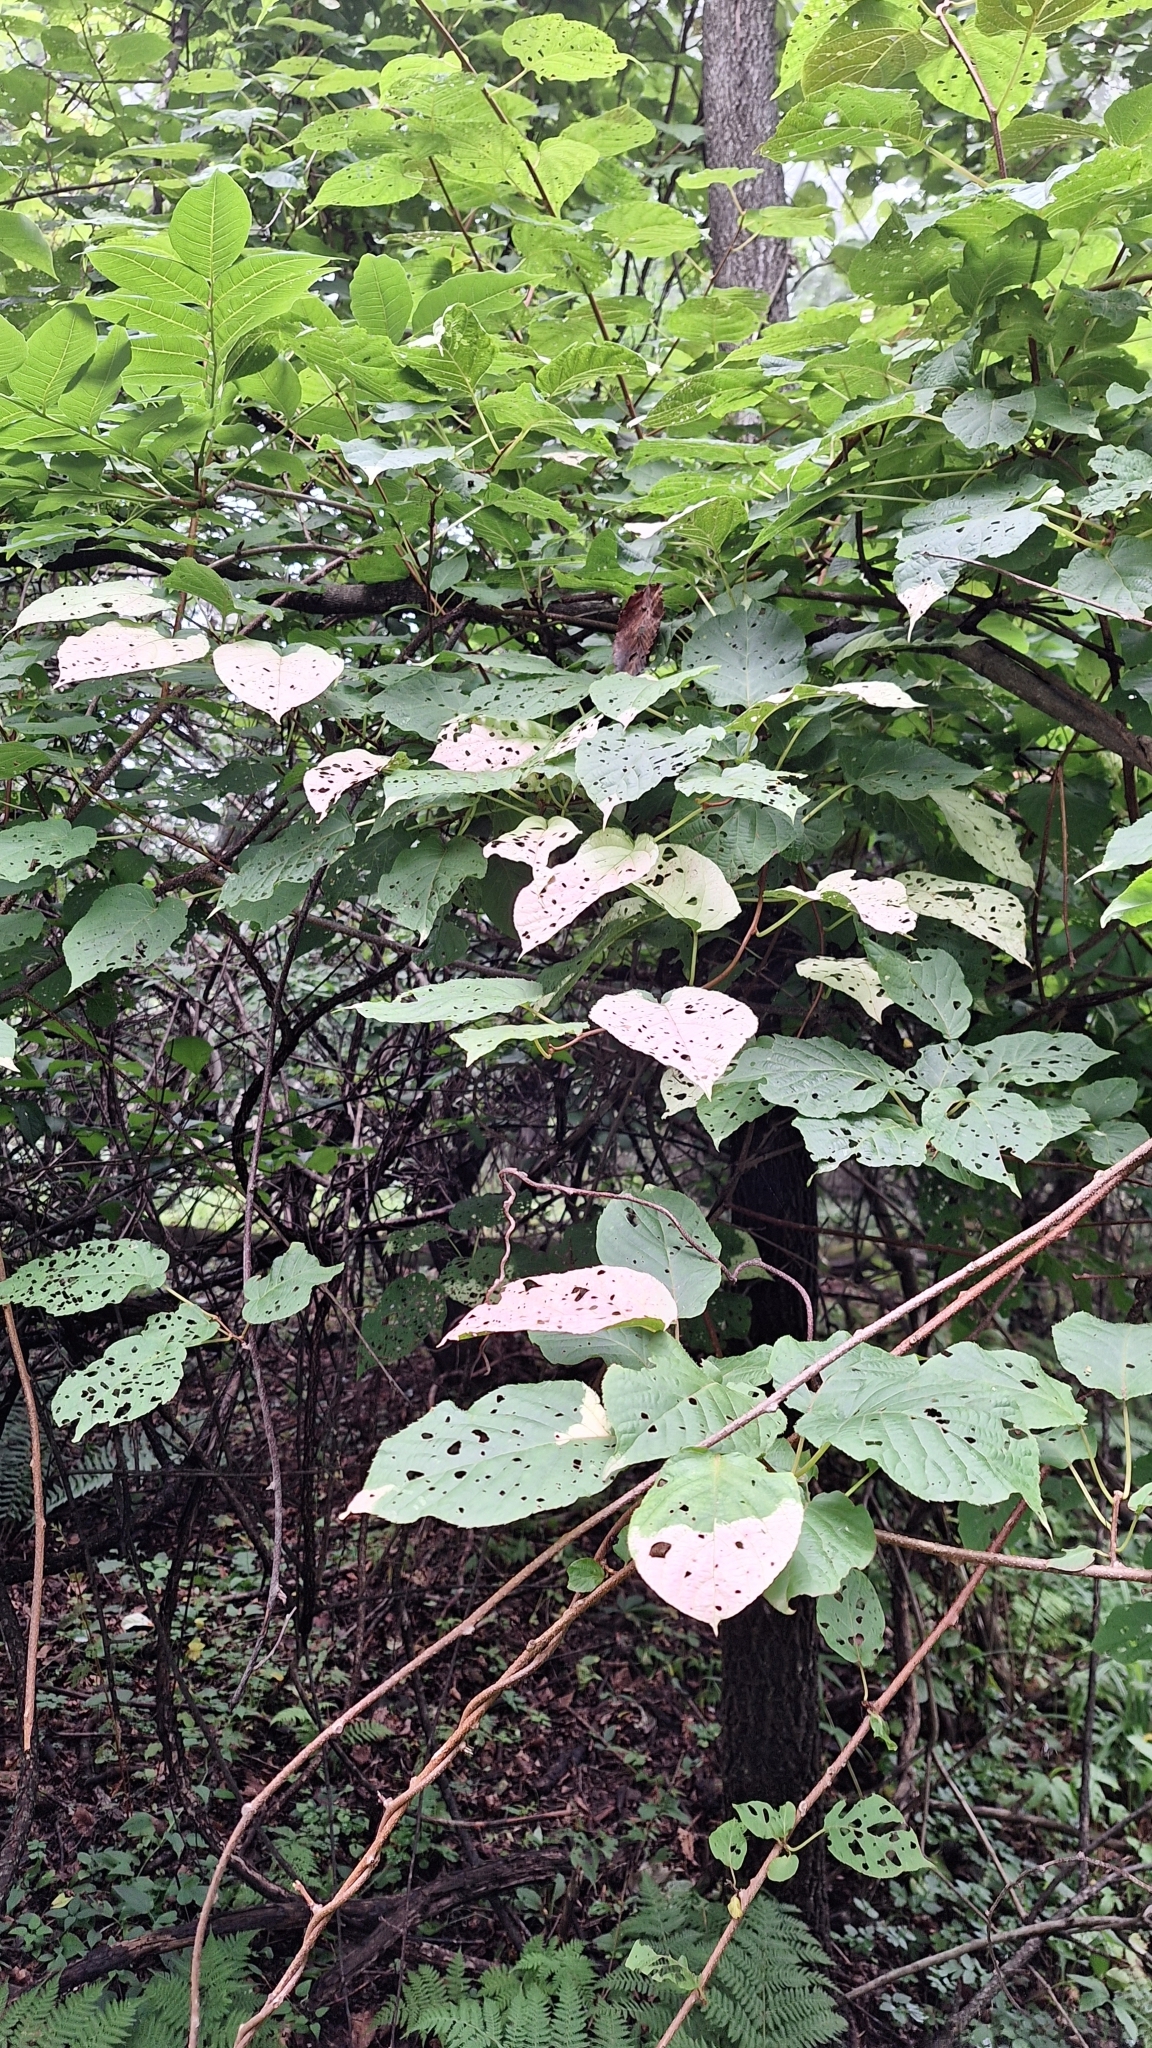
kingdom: Plantae
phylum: Tracheophyta
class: Magnoliopsida
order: Ericales
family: Actinidiaceae
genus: Actinidia
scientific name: Actinidia kolomikta
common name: Arctic beauty kiwi
